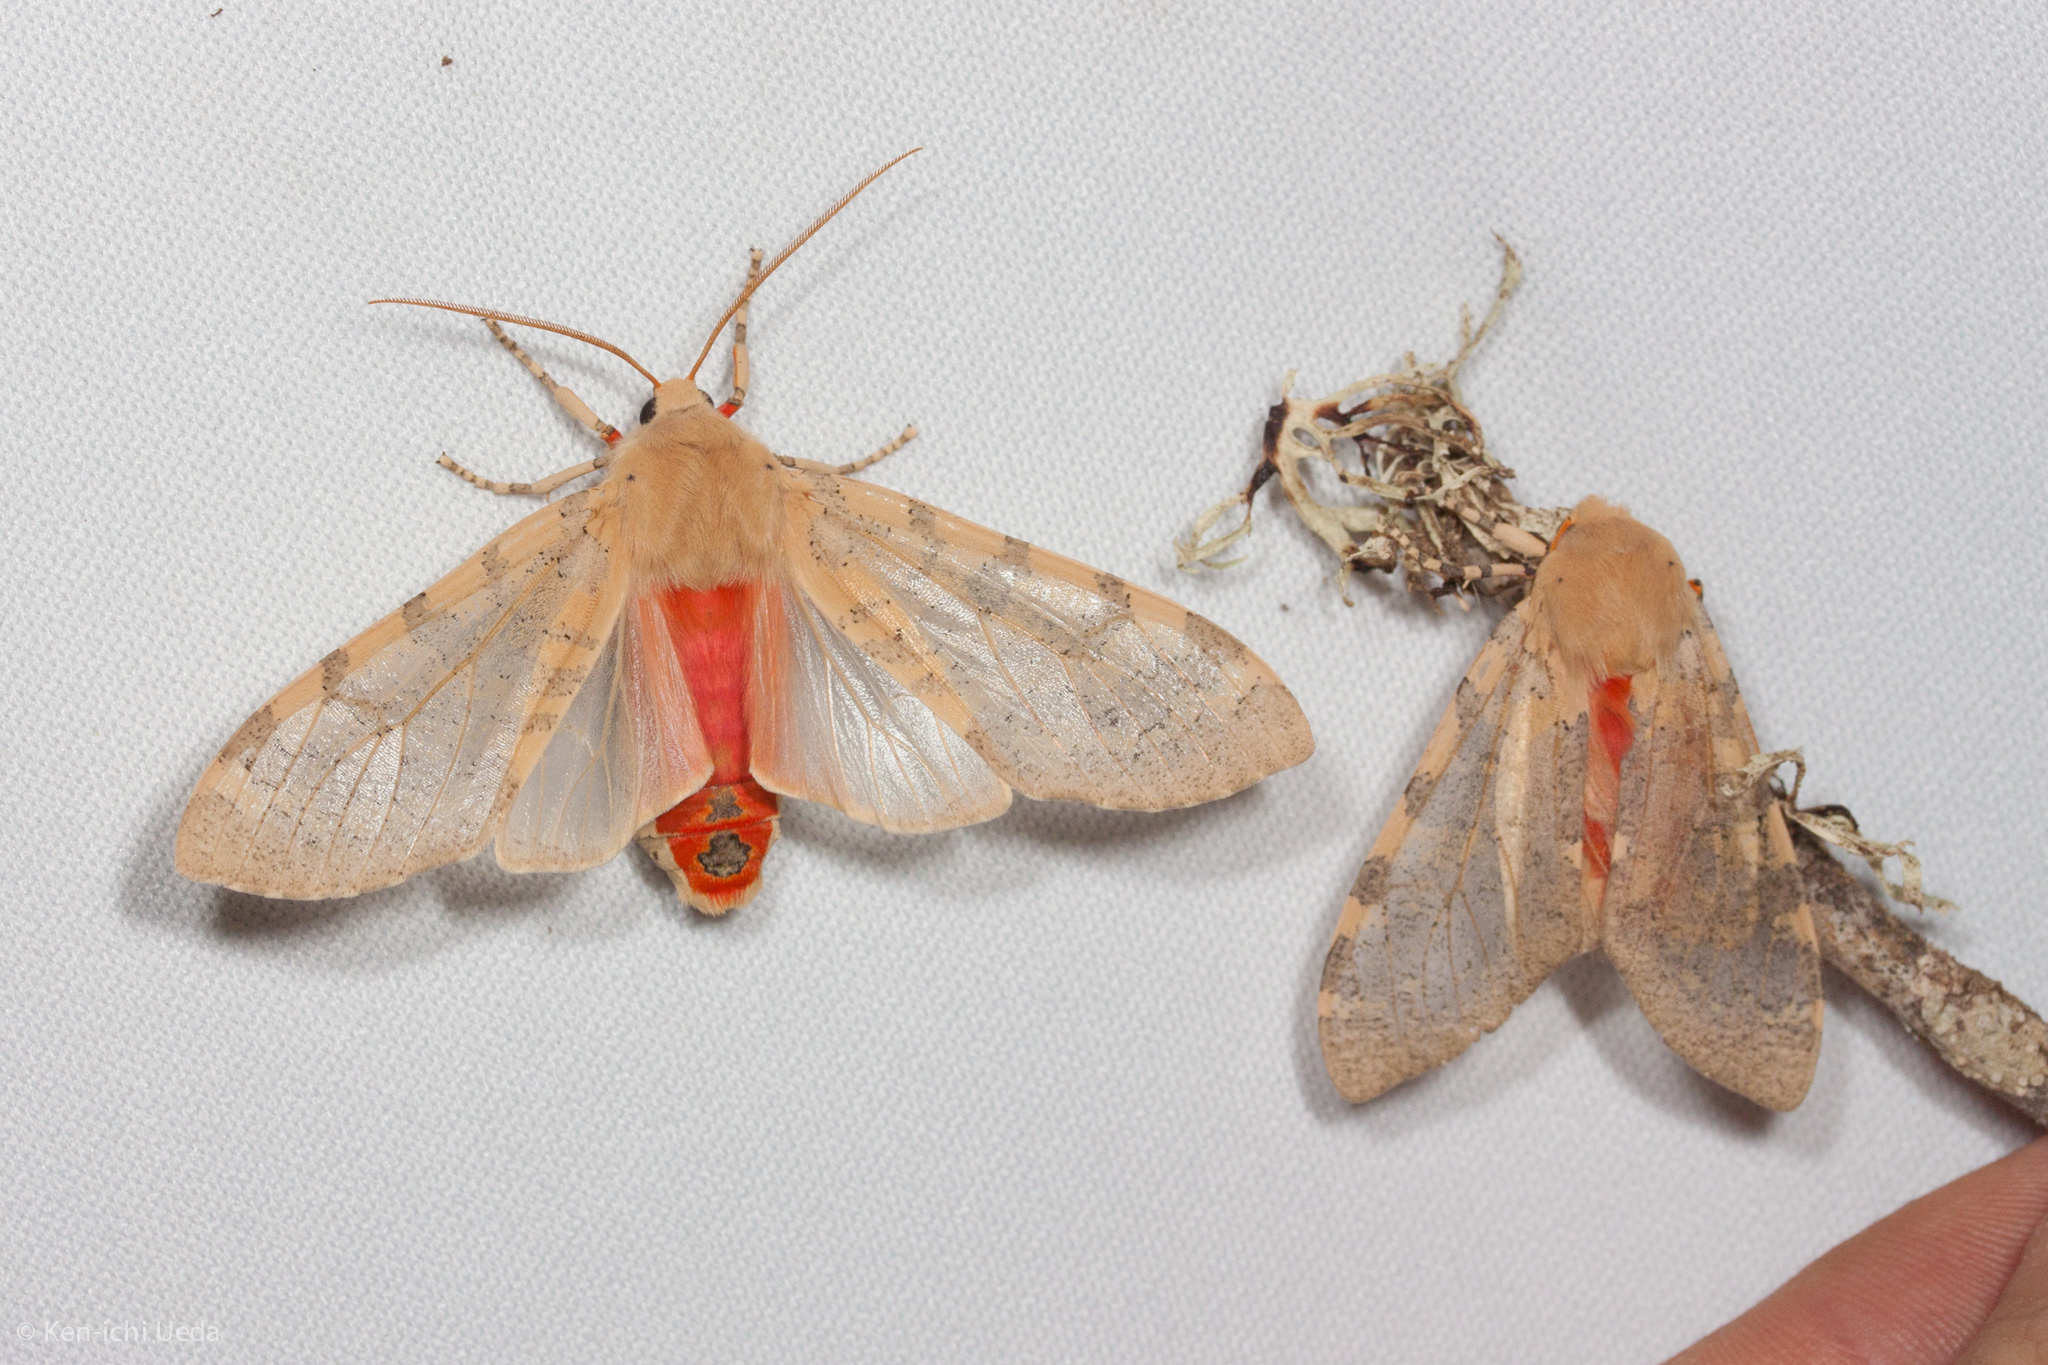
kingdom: Animalia
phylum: Arthropoda
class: Insecta
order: Lepidoptera
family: Erebidae
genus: Hemihyalea
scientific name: Hemihyalea edwardsii
